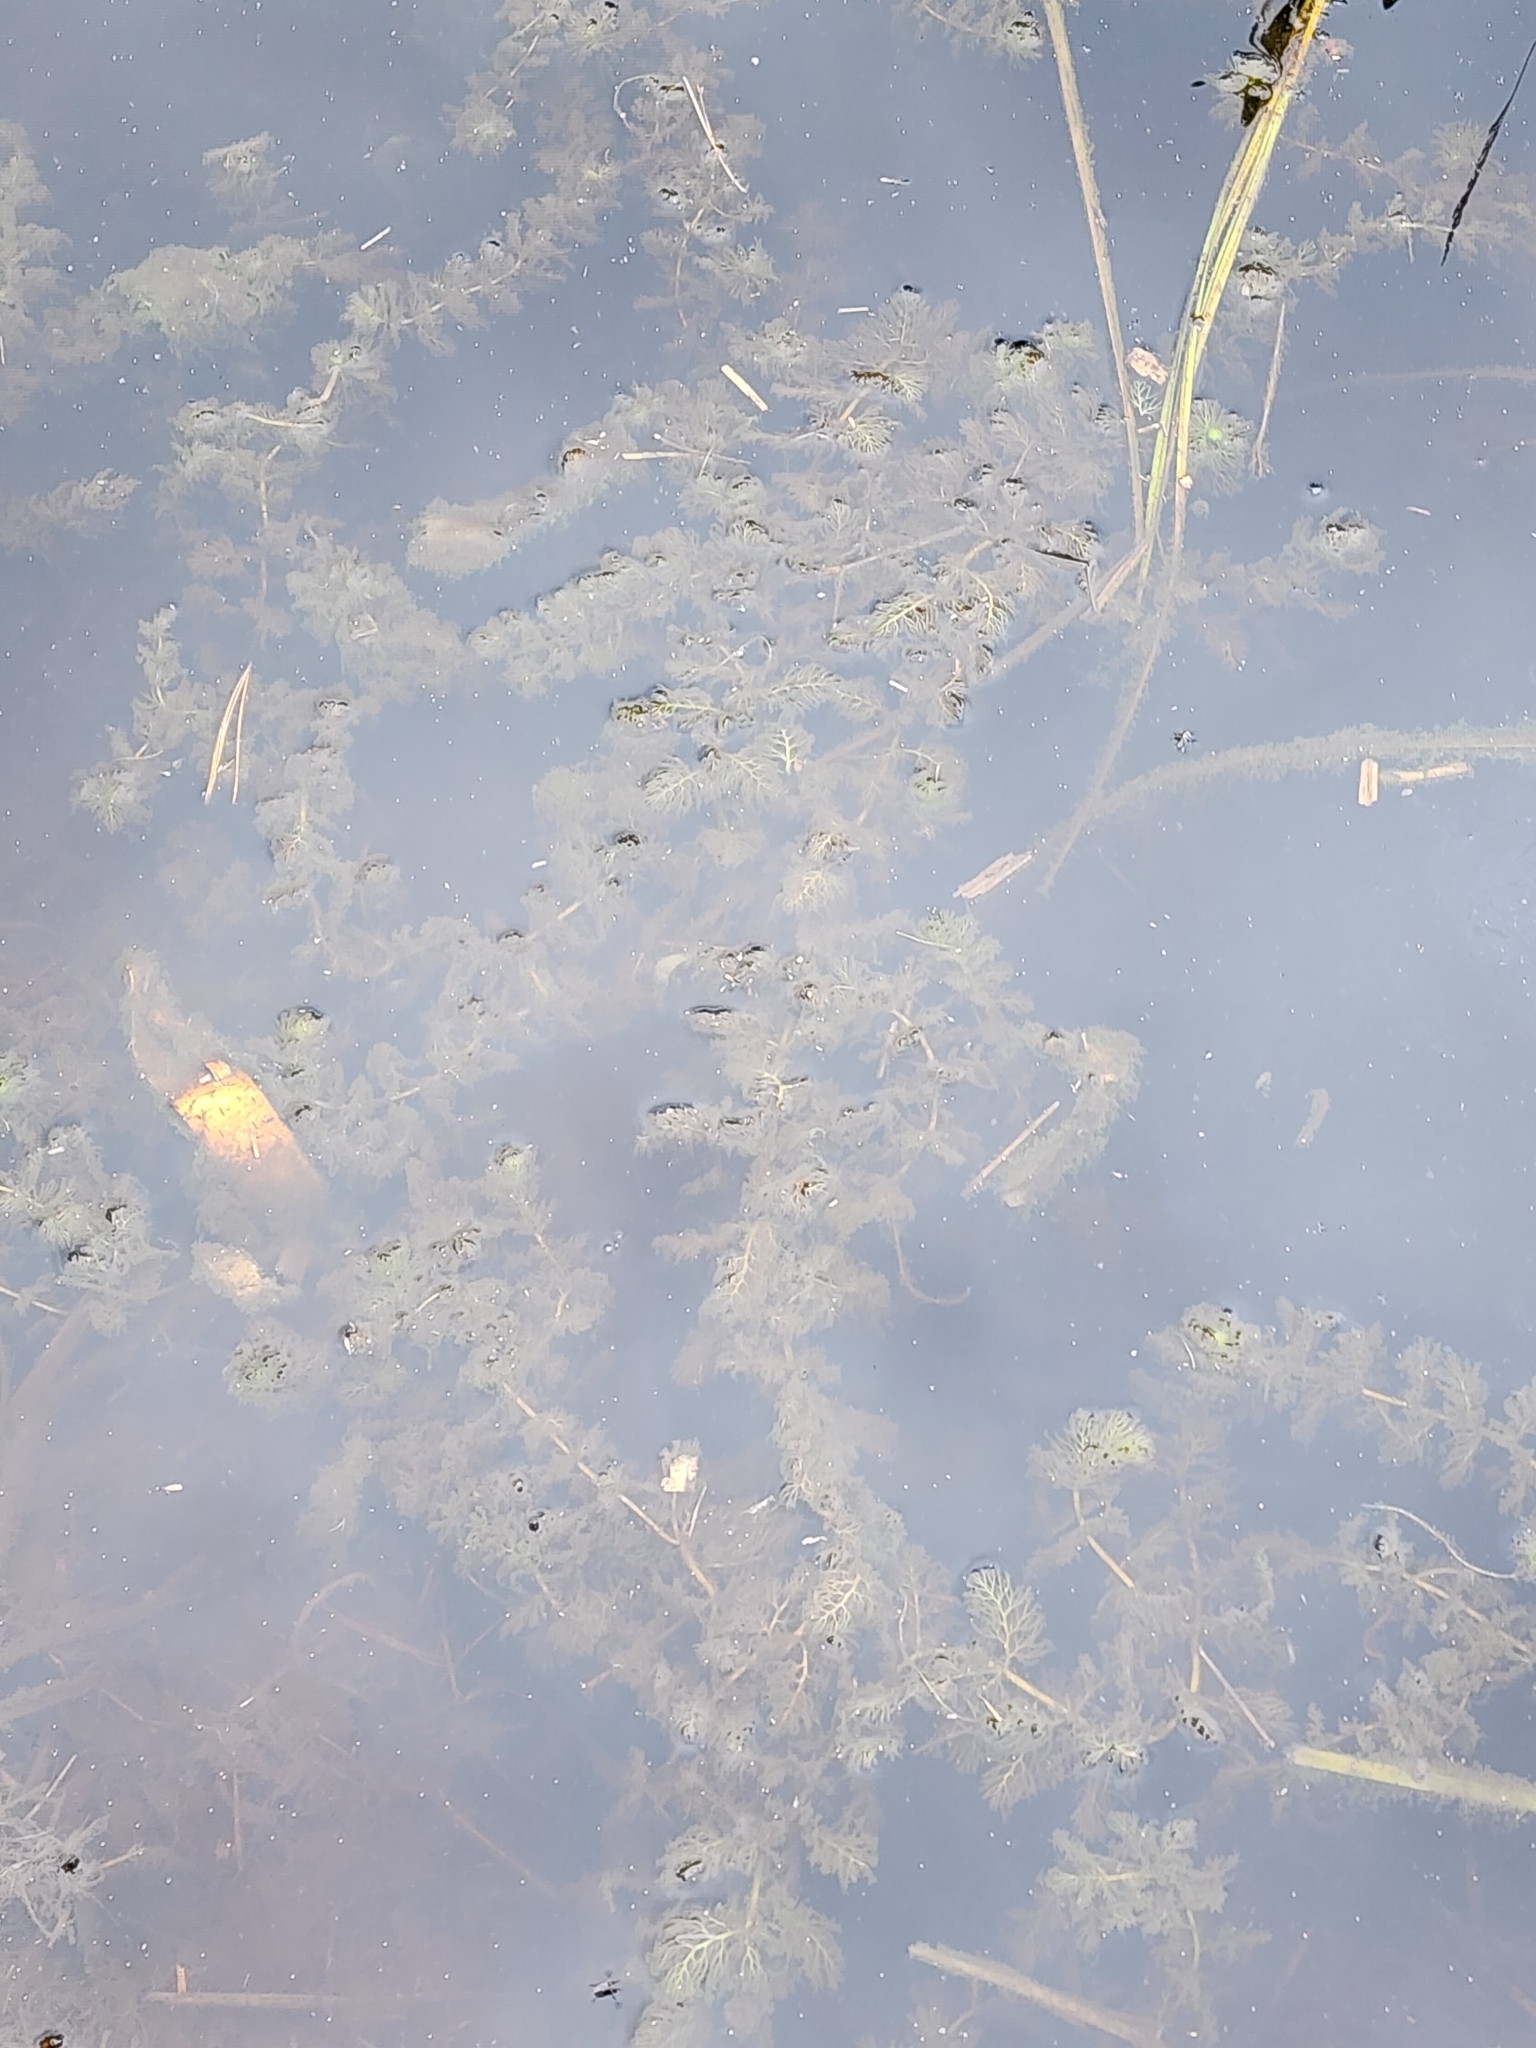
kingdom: Plantae
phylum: Tracheophyta
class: Magnoliopsida
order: Lamiales
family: Lentibulariaceae
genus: Utricularia
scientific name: Utricularia macrorhiza
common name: Common bladderwort
